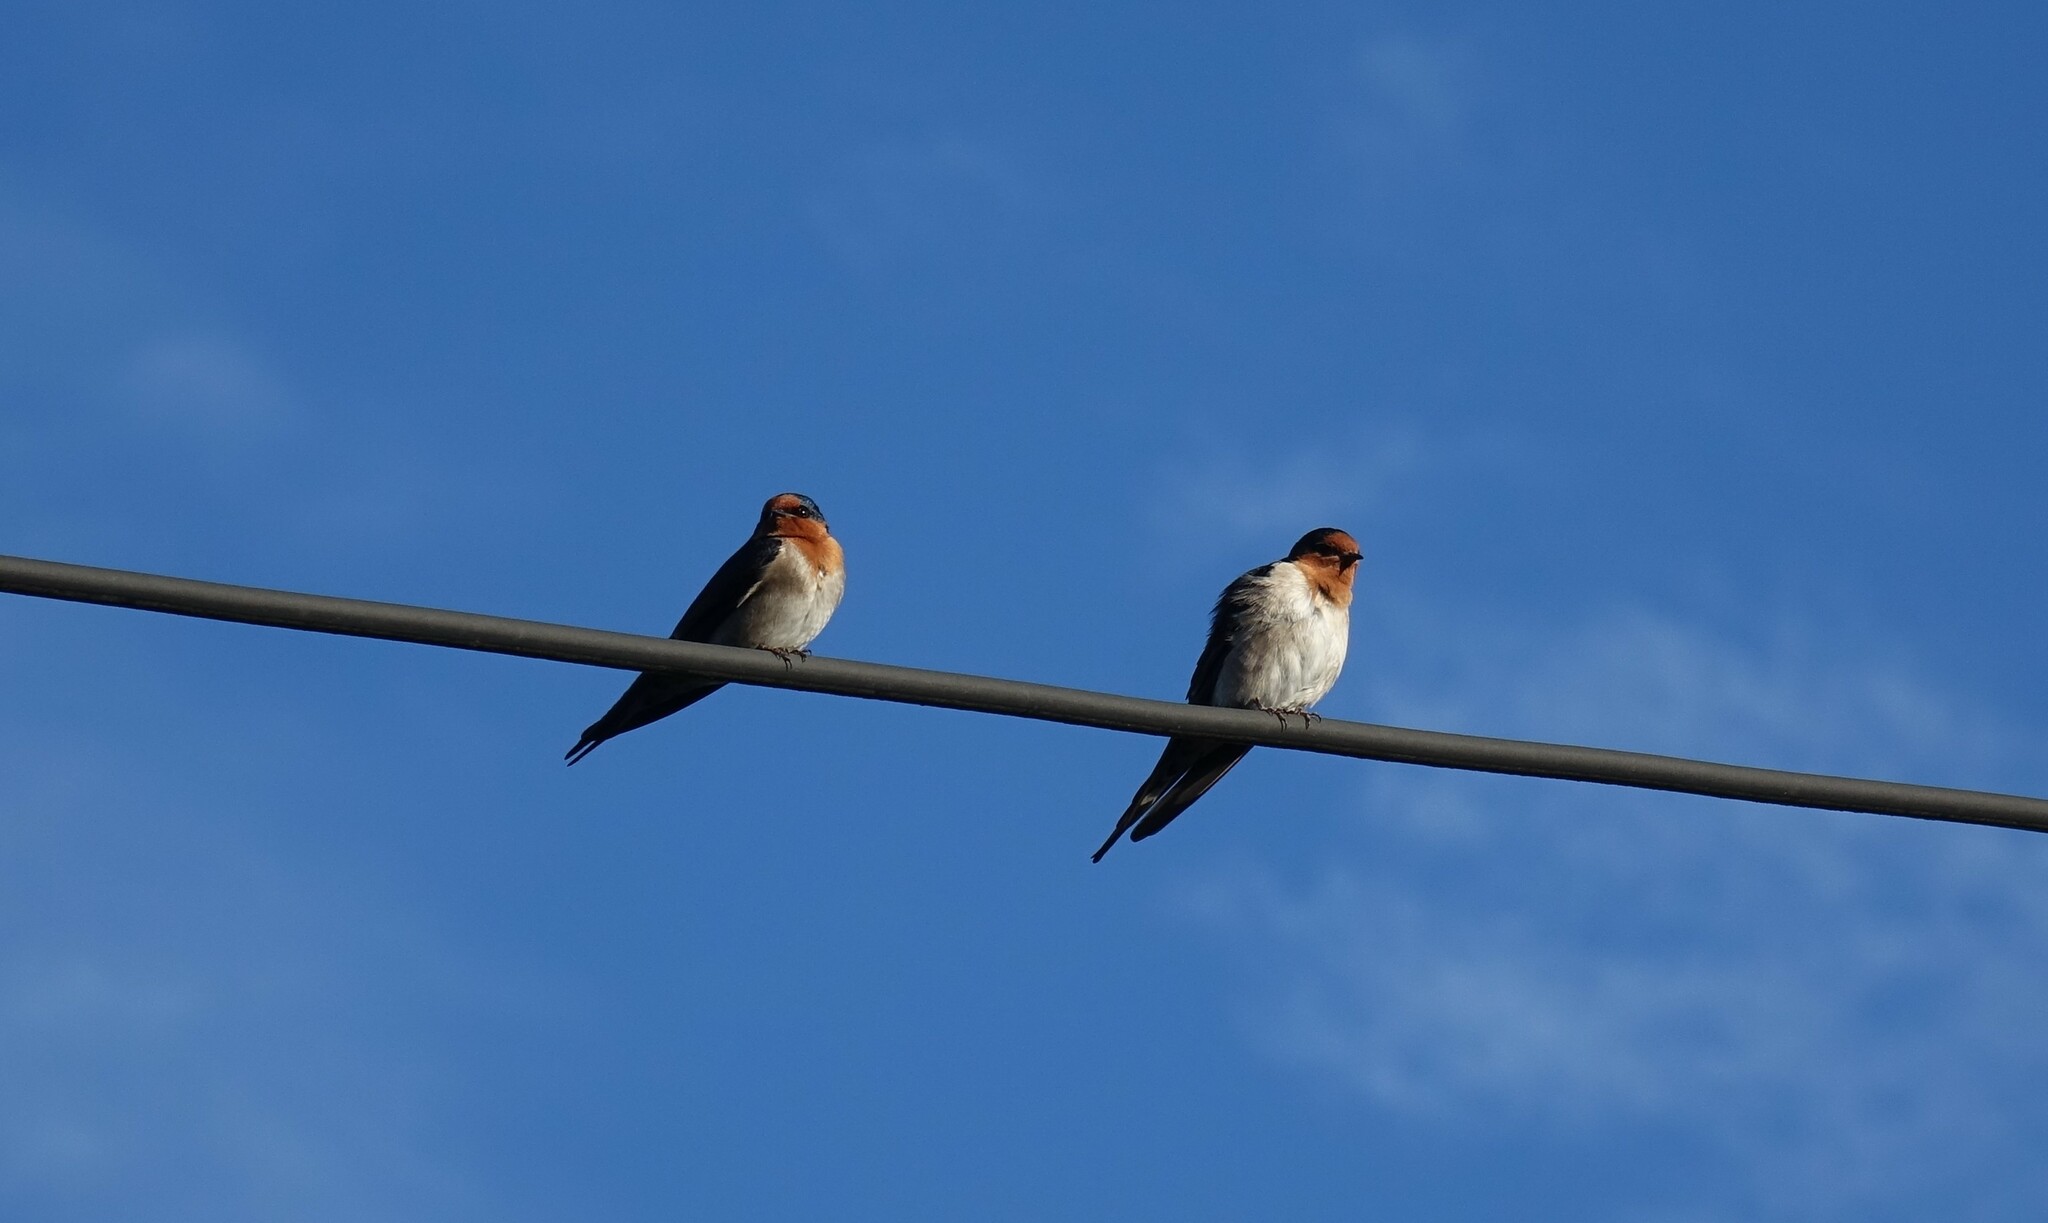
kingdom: Animalia
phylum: Chordata
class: Aves
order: Passeriformes
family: Hirundinidae
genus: Hirundo
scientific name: Hirundo neoxena
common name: Welcome swallow
